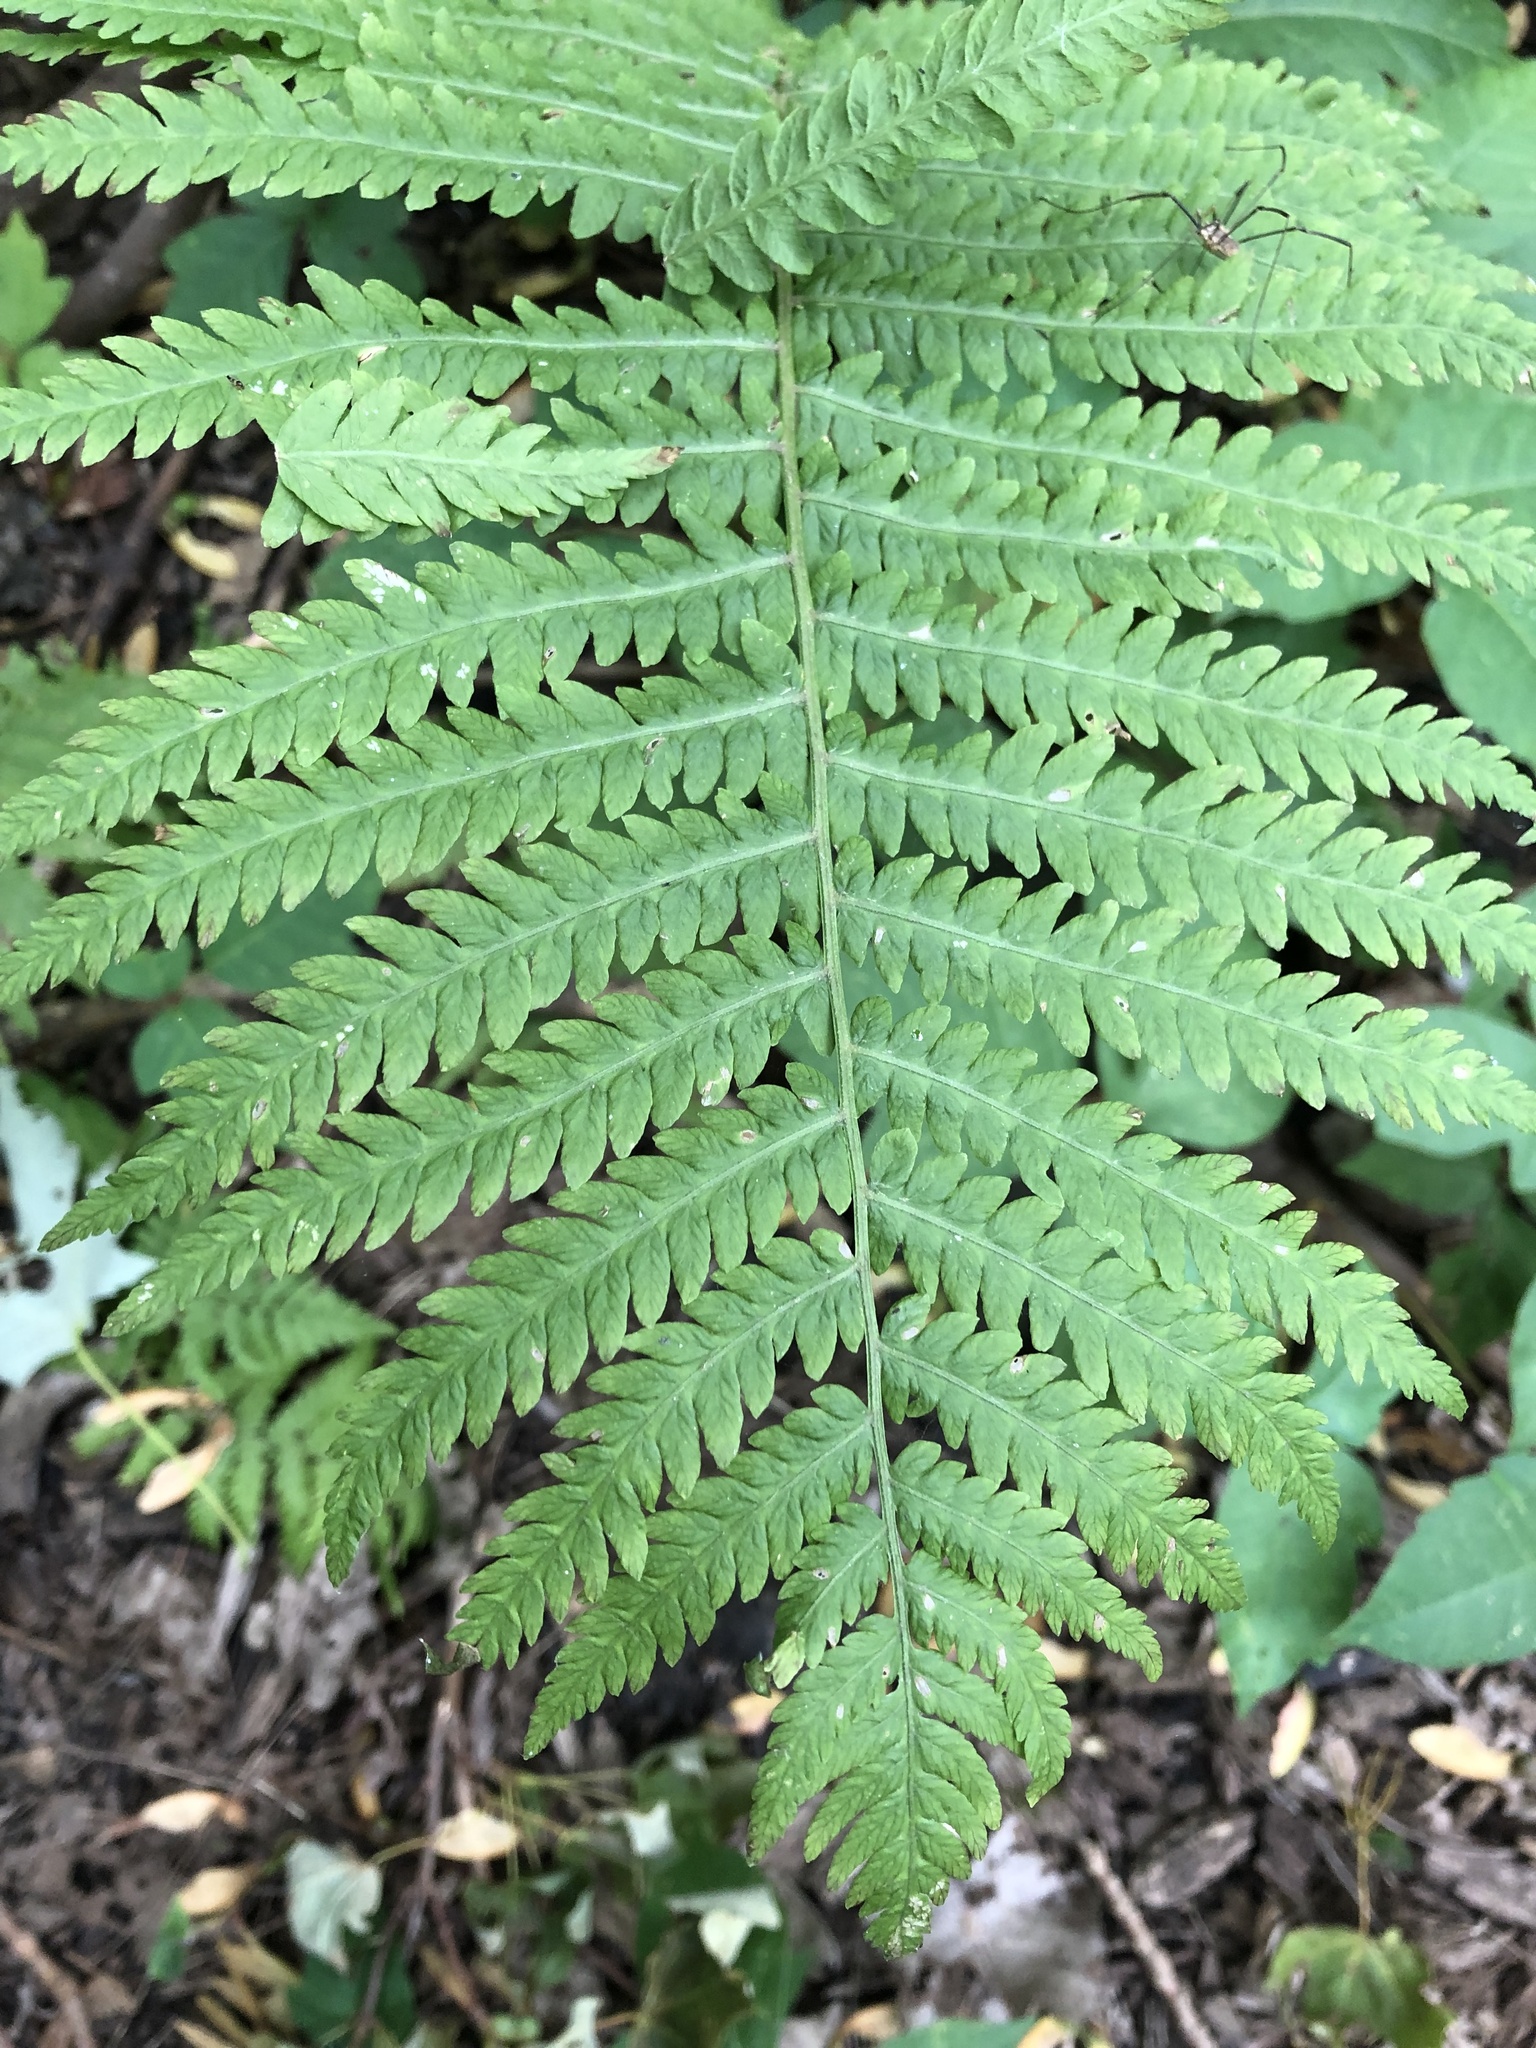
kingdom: Plantae
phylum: Tracheophyta
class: Polypodiopsida
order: Polypodiales
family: Onocleaceae
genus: Matteuccia
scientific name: Matteuccia struthiopteris
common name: Ostrich fern
